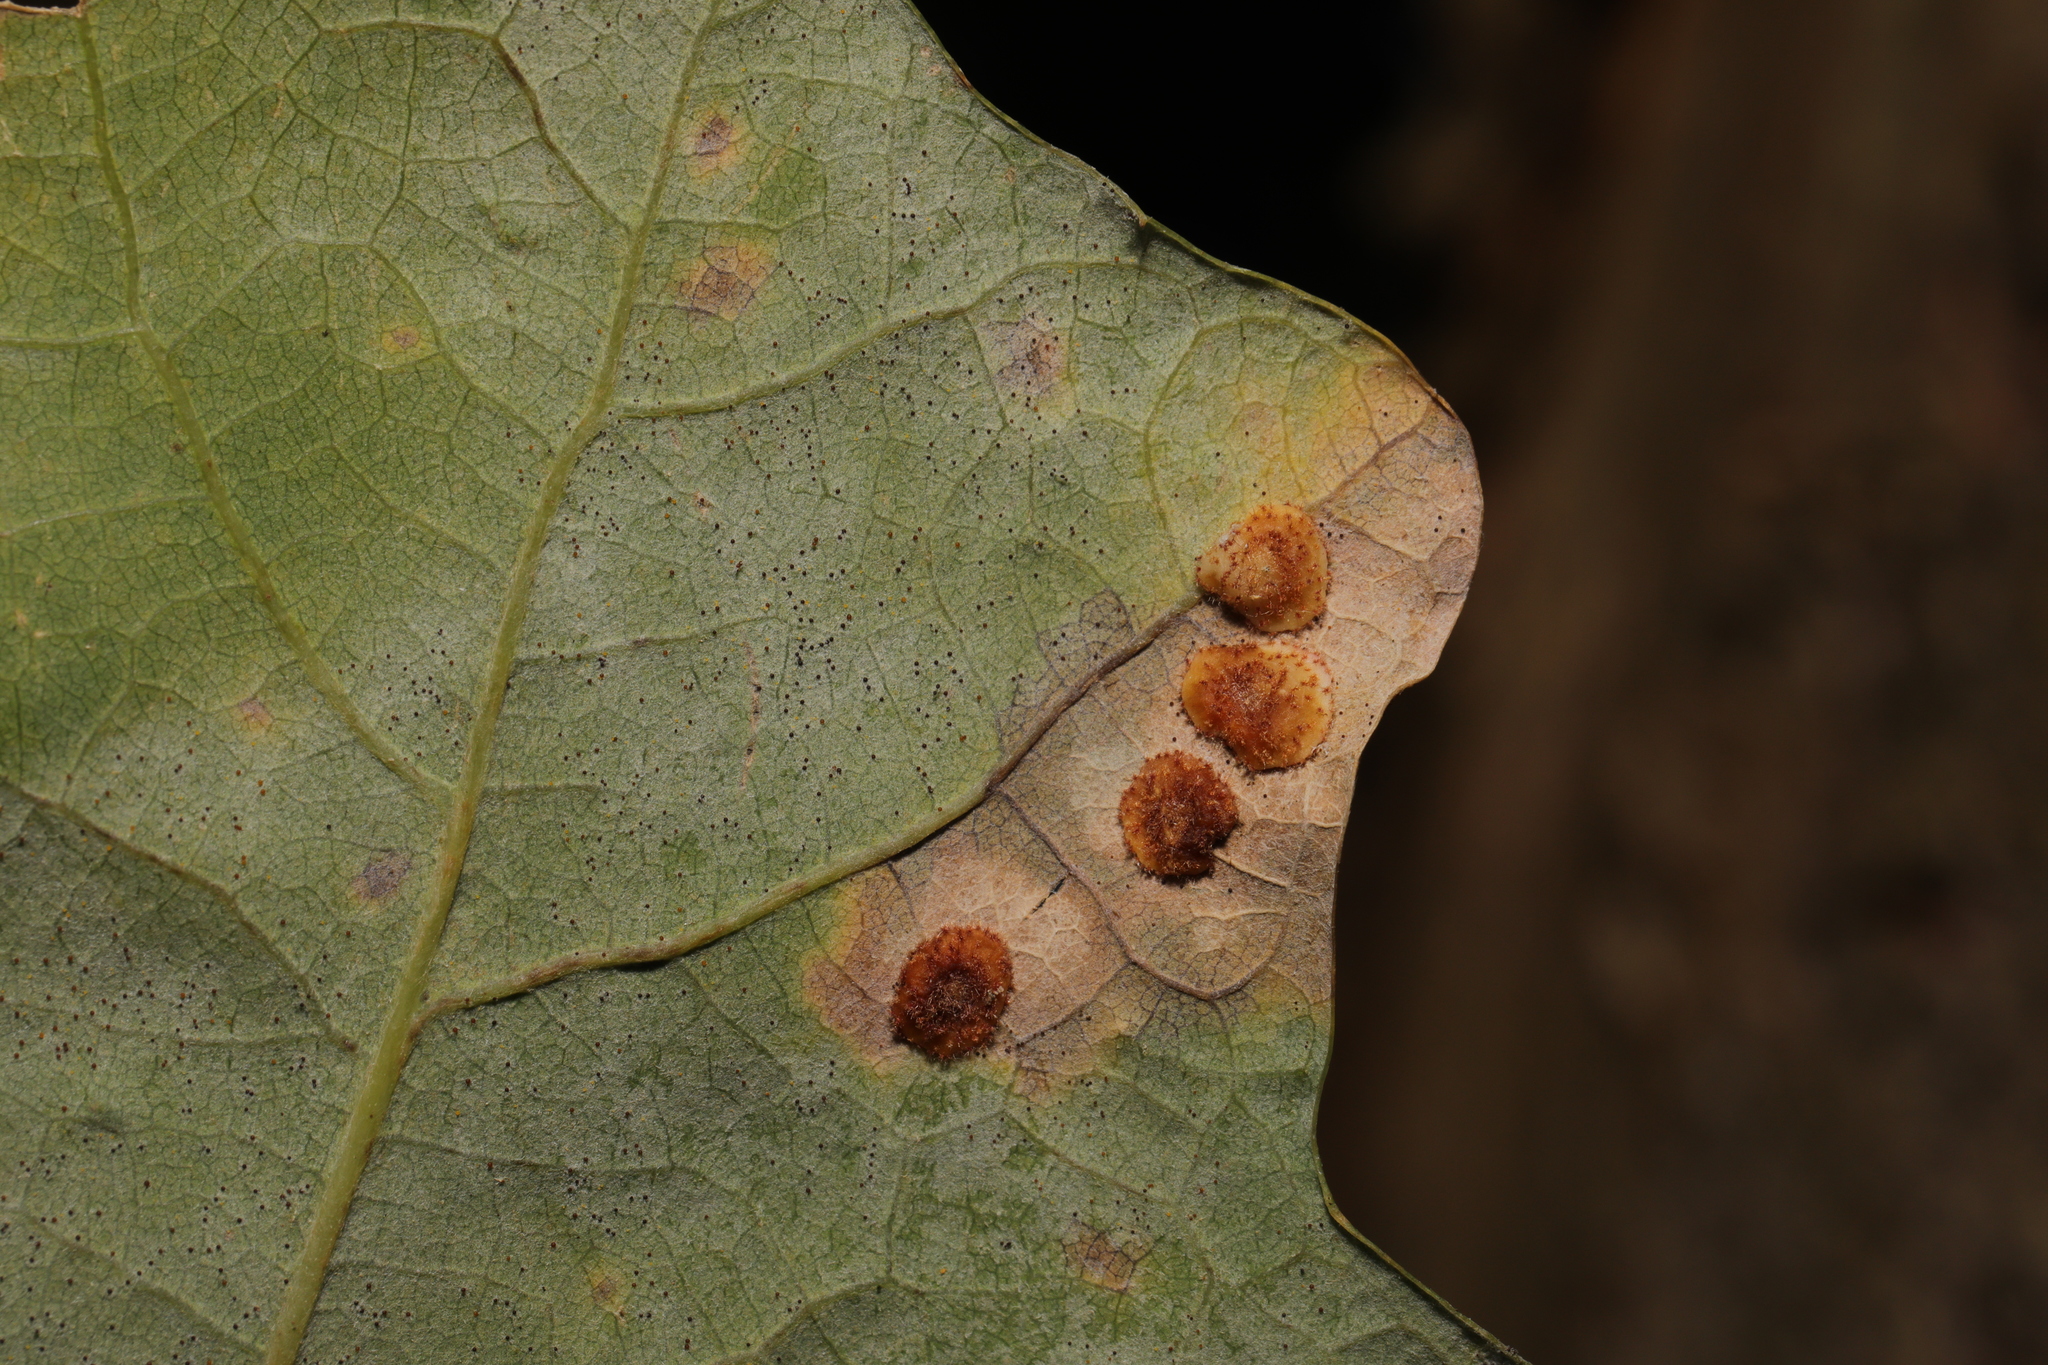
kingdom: Animalia
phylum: Arthropoda
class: Insecta
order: Hymenoptera
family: Cynipidae
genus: Neuroterus
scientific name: Neuroterus quercusbaccarum
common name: Common spangle gall
